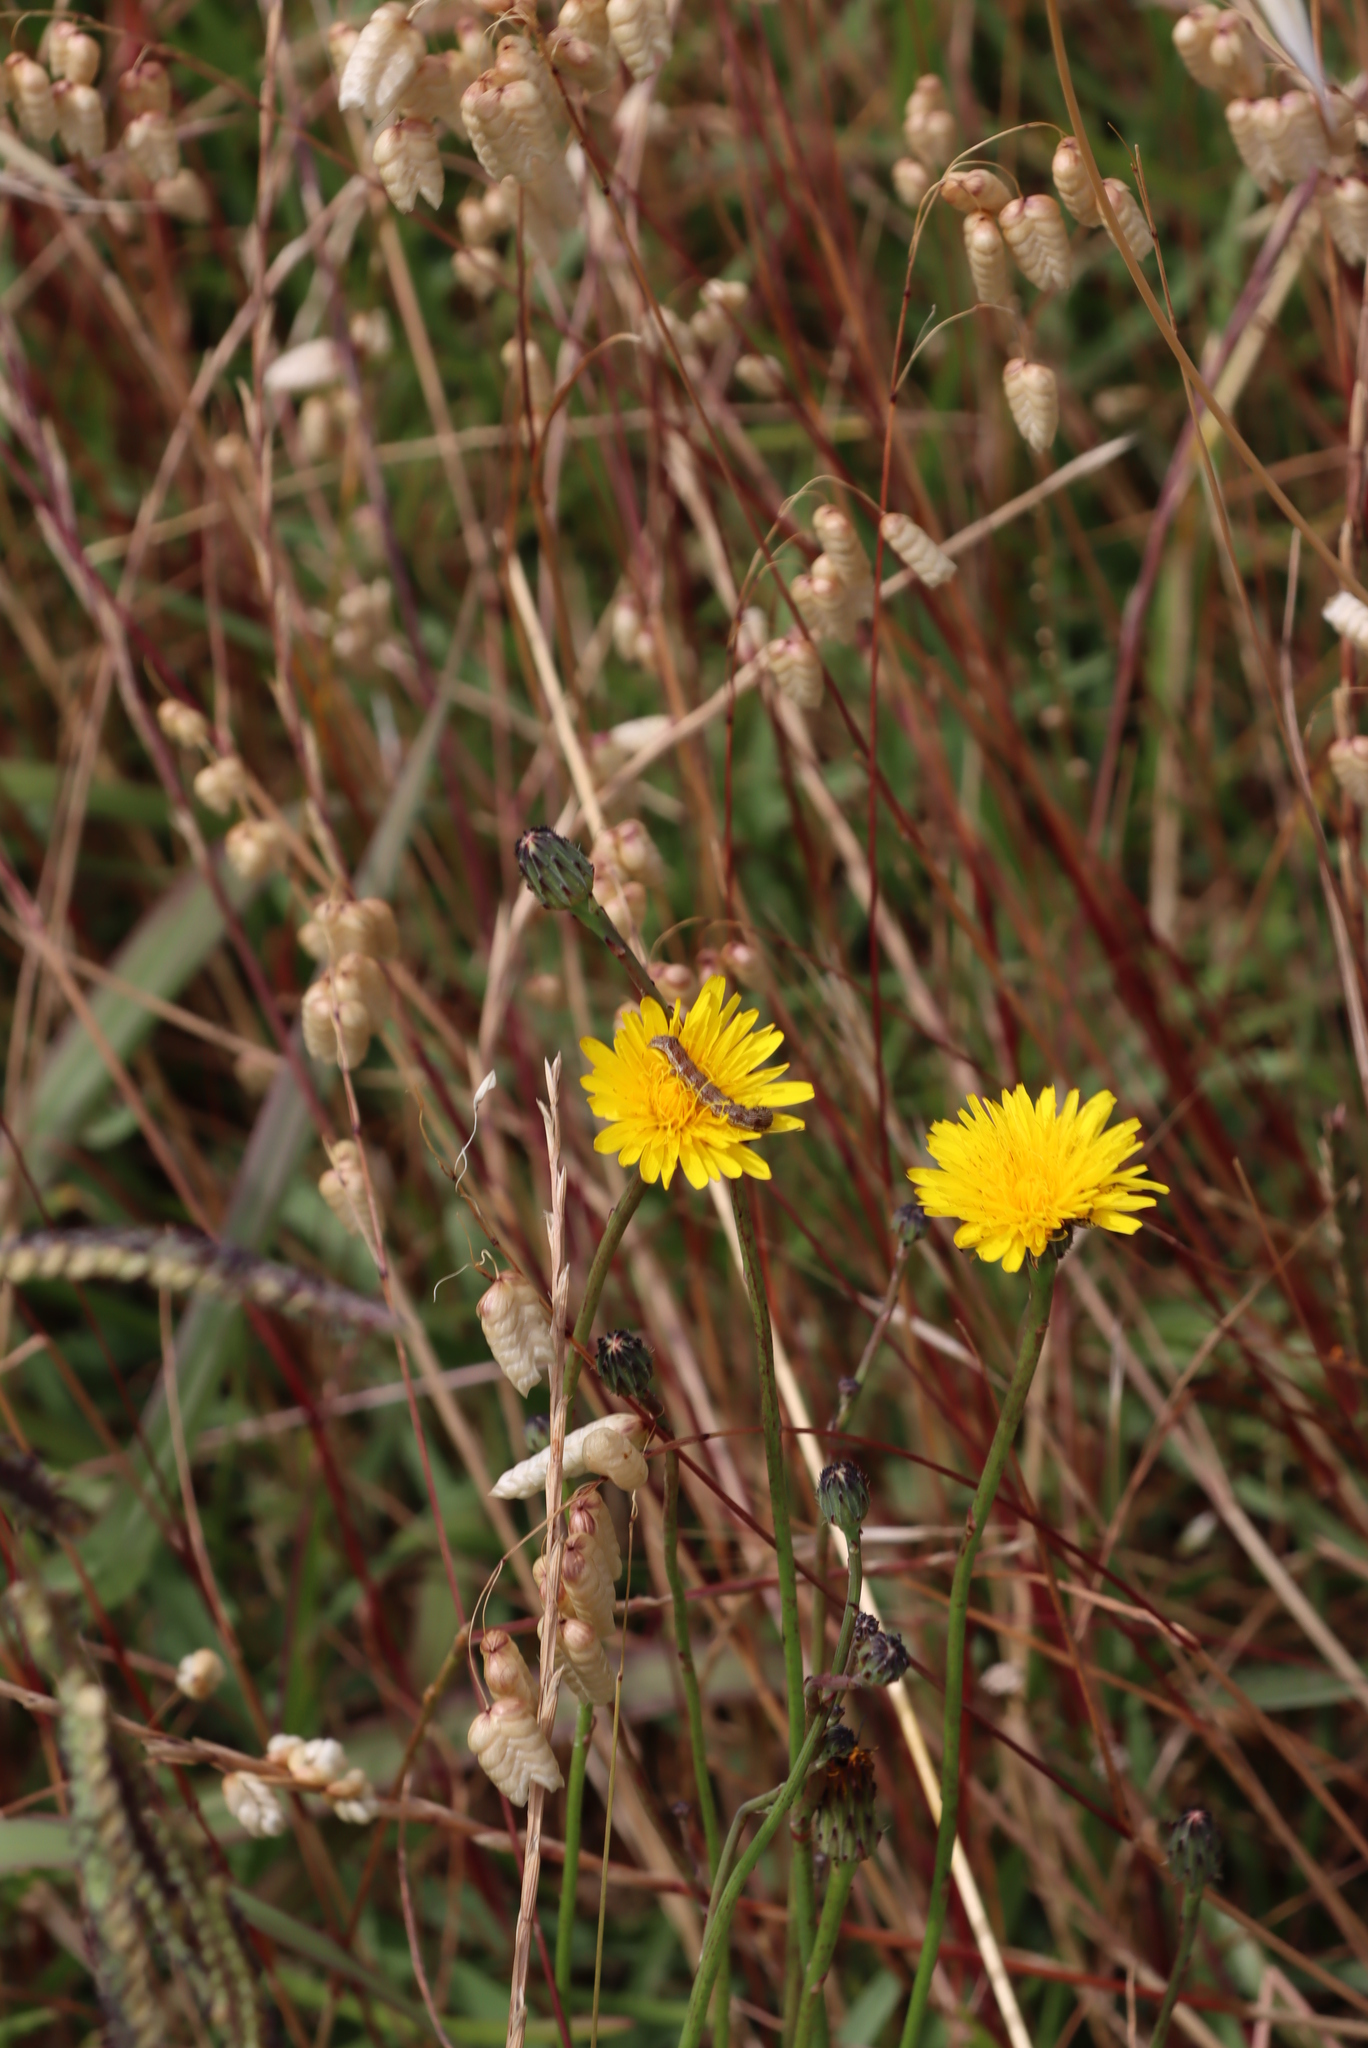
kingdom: Animalia
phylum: Arthropoda
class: Insecta
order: Lepidoptera
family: Noctuidae
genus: Helicoverpa
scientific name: Helicoverpa armigera
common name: Cotton bollworm
